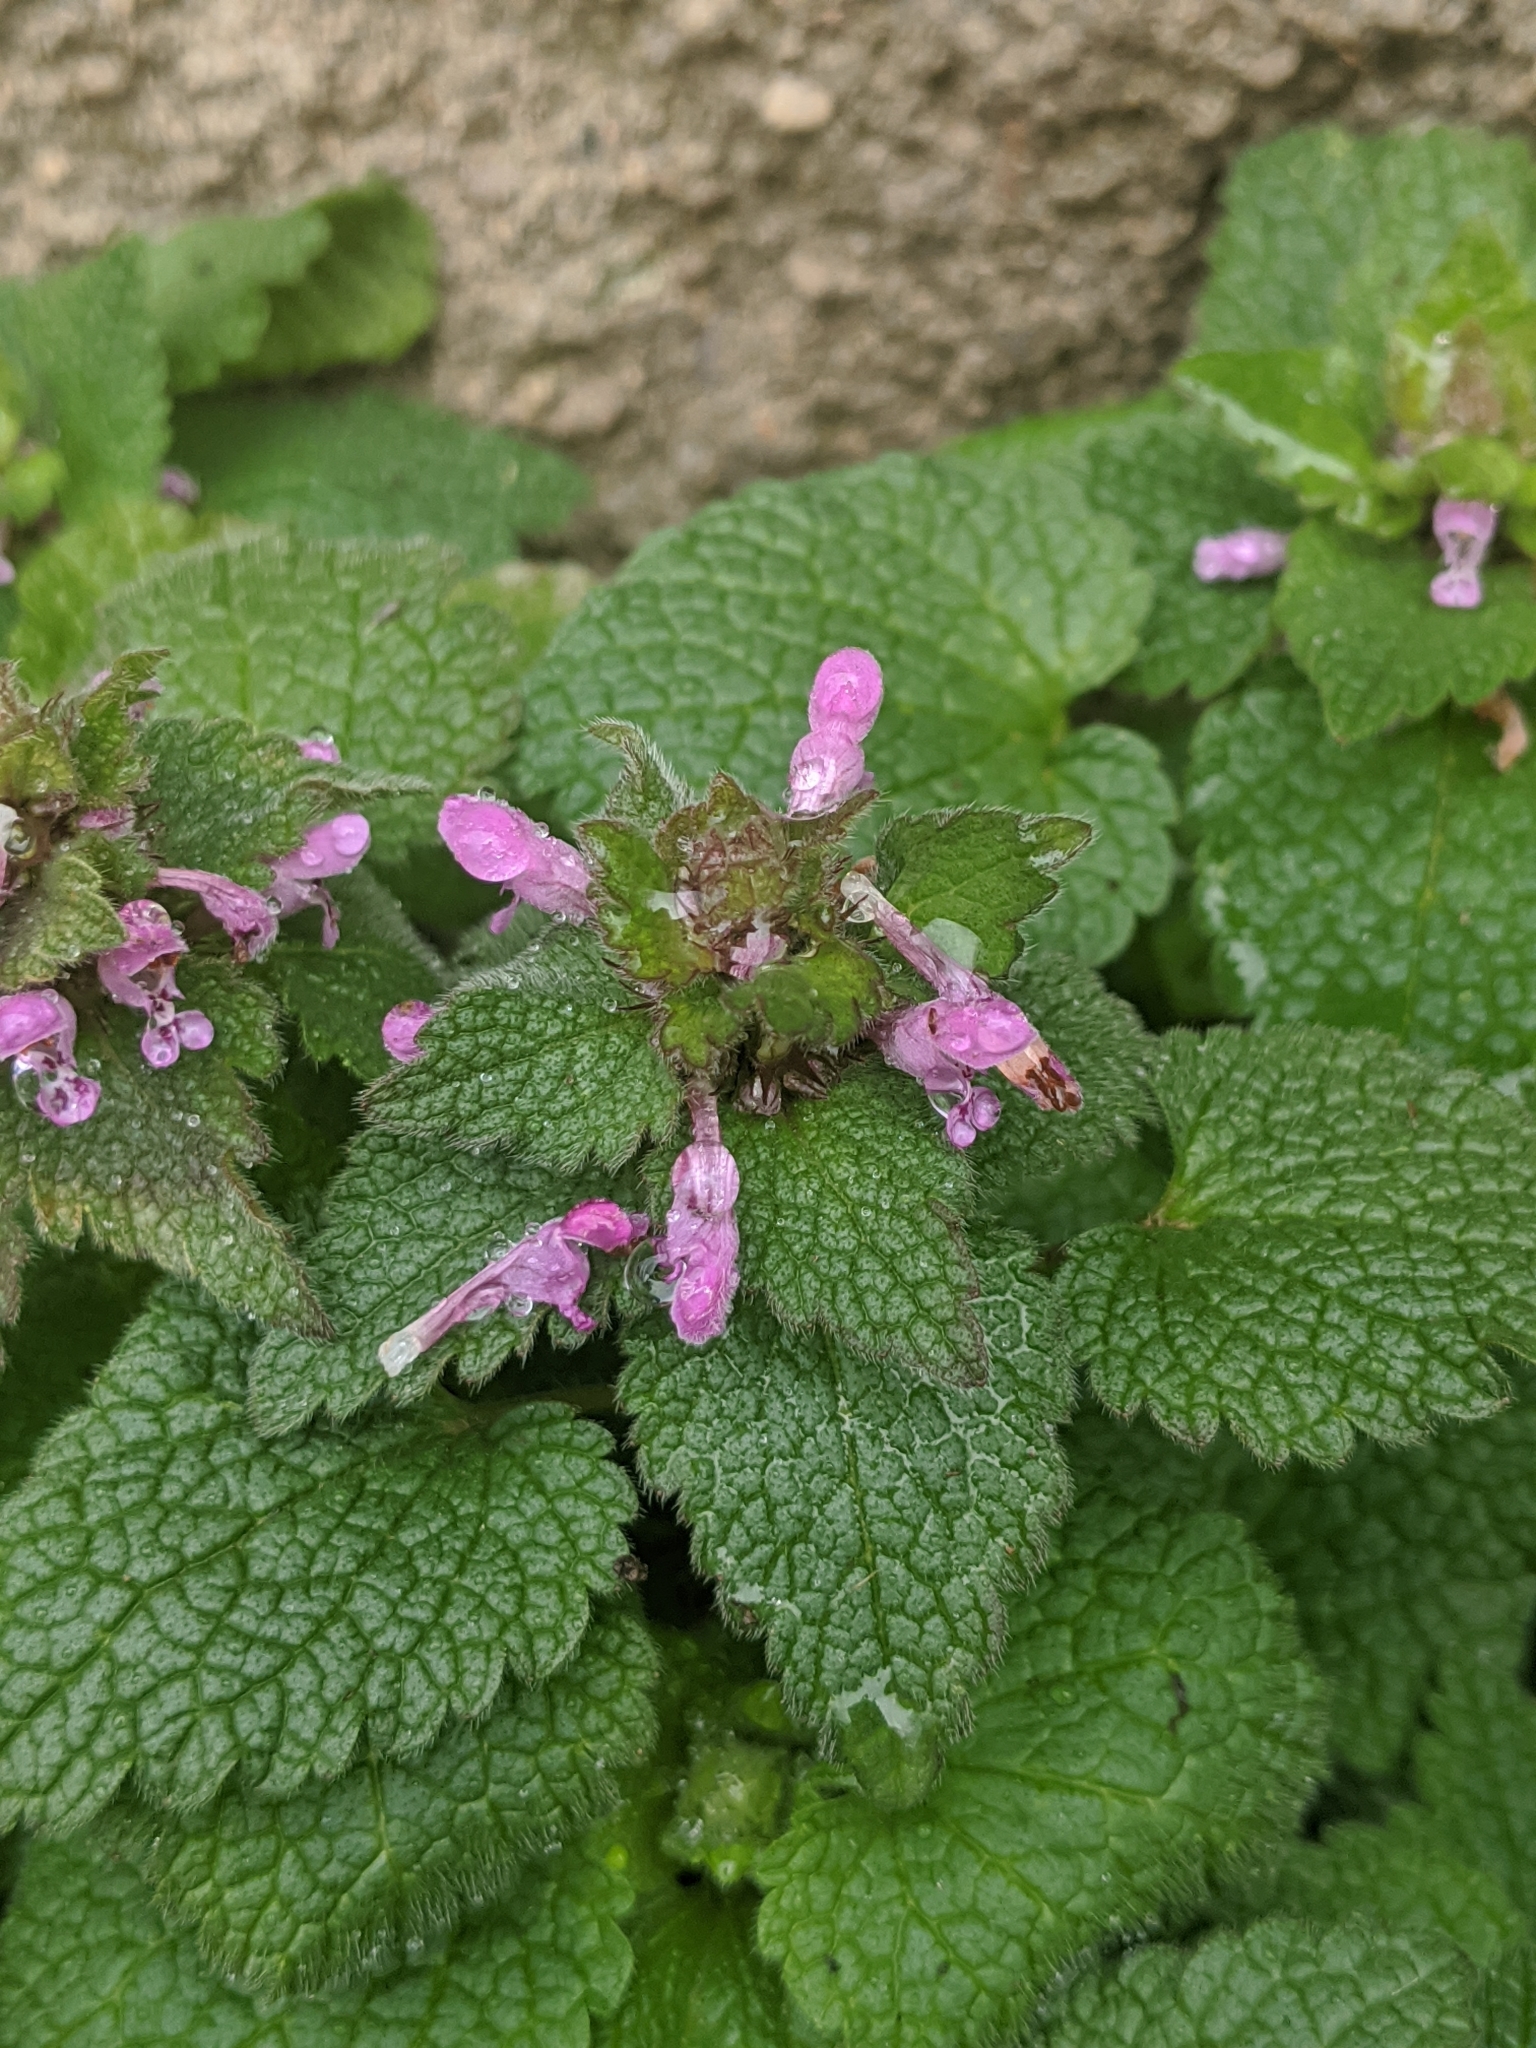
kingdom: Plantae
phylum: Tracheophyta
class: Magnoliopsida
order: Lamiales
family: Lamiaceae
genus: Lamium
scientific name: Lamium purpureum
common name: Red dead-nettle
